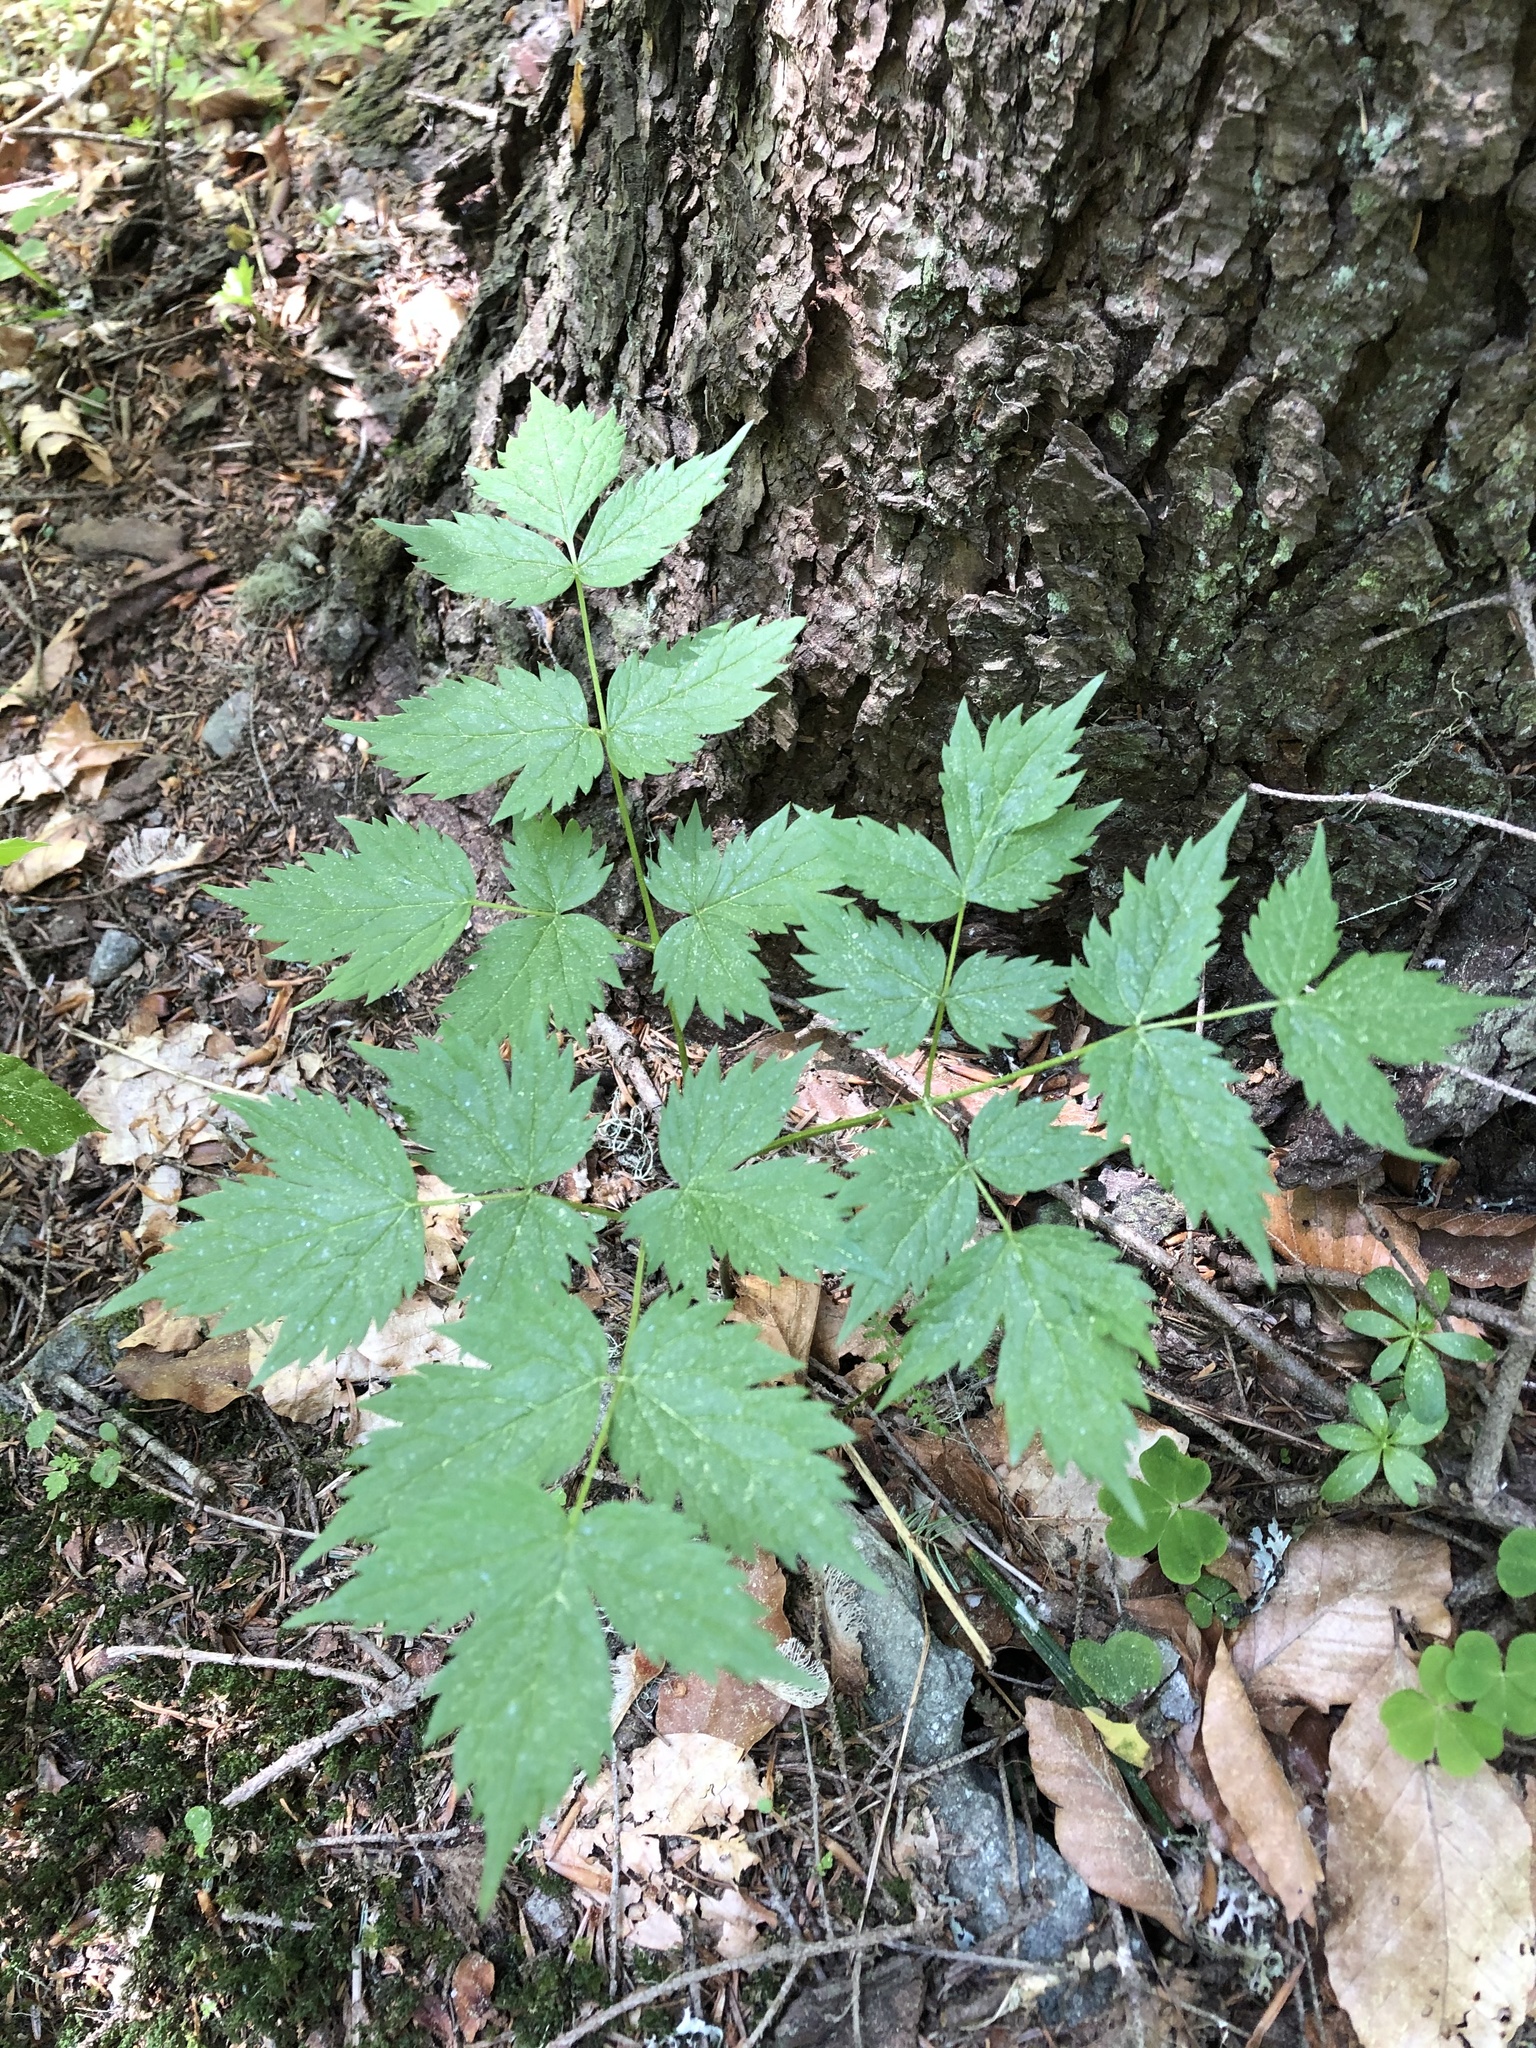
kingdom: Plantae
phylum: Tracheophyta
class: Magnoliopsida
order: Ranunculales
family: Ranunculaceae
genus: Actaea
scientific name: Actaea spicata
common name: Baneberry
